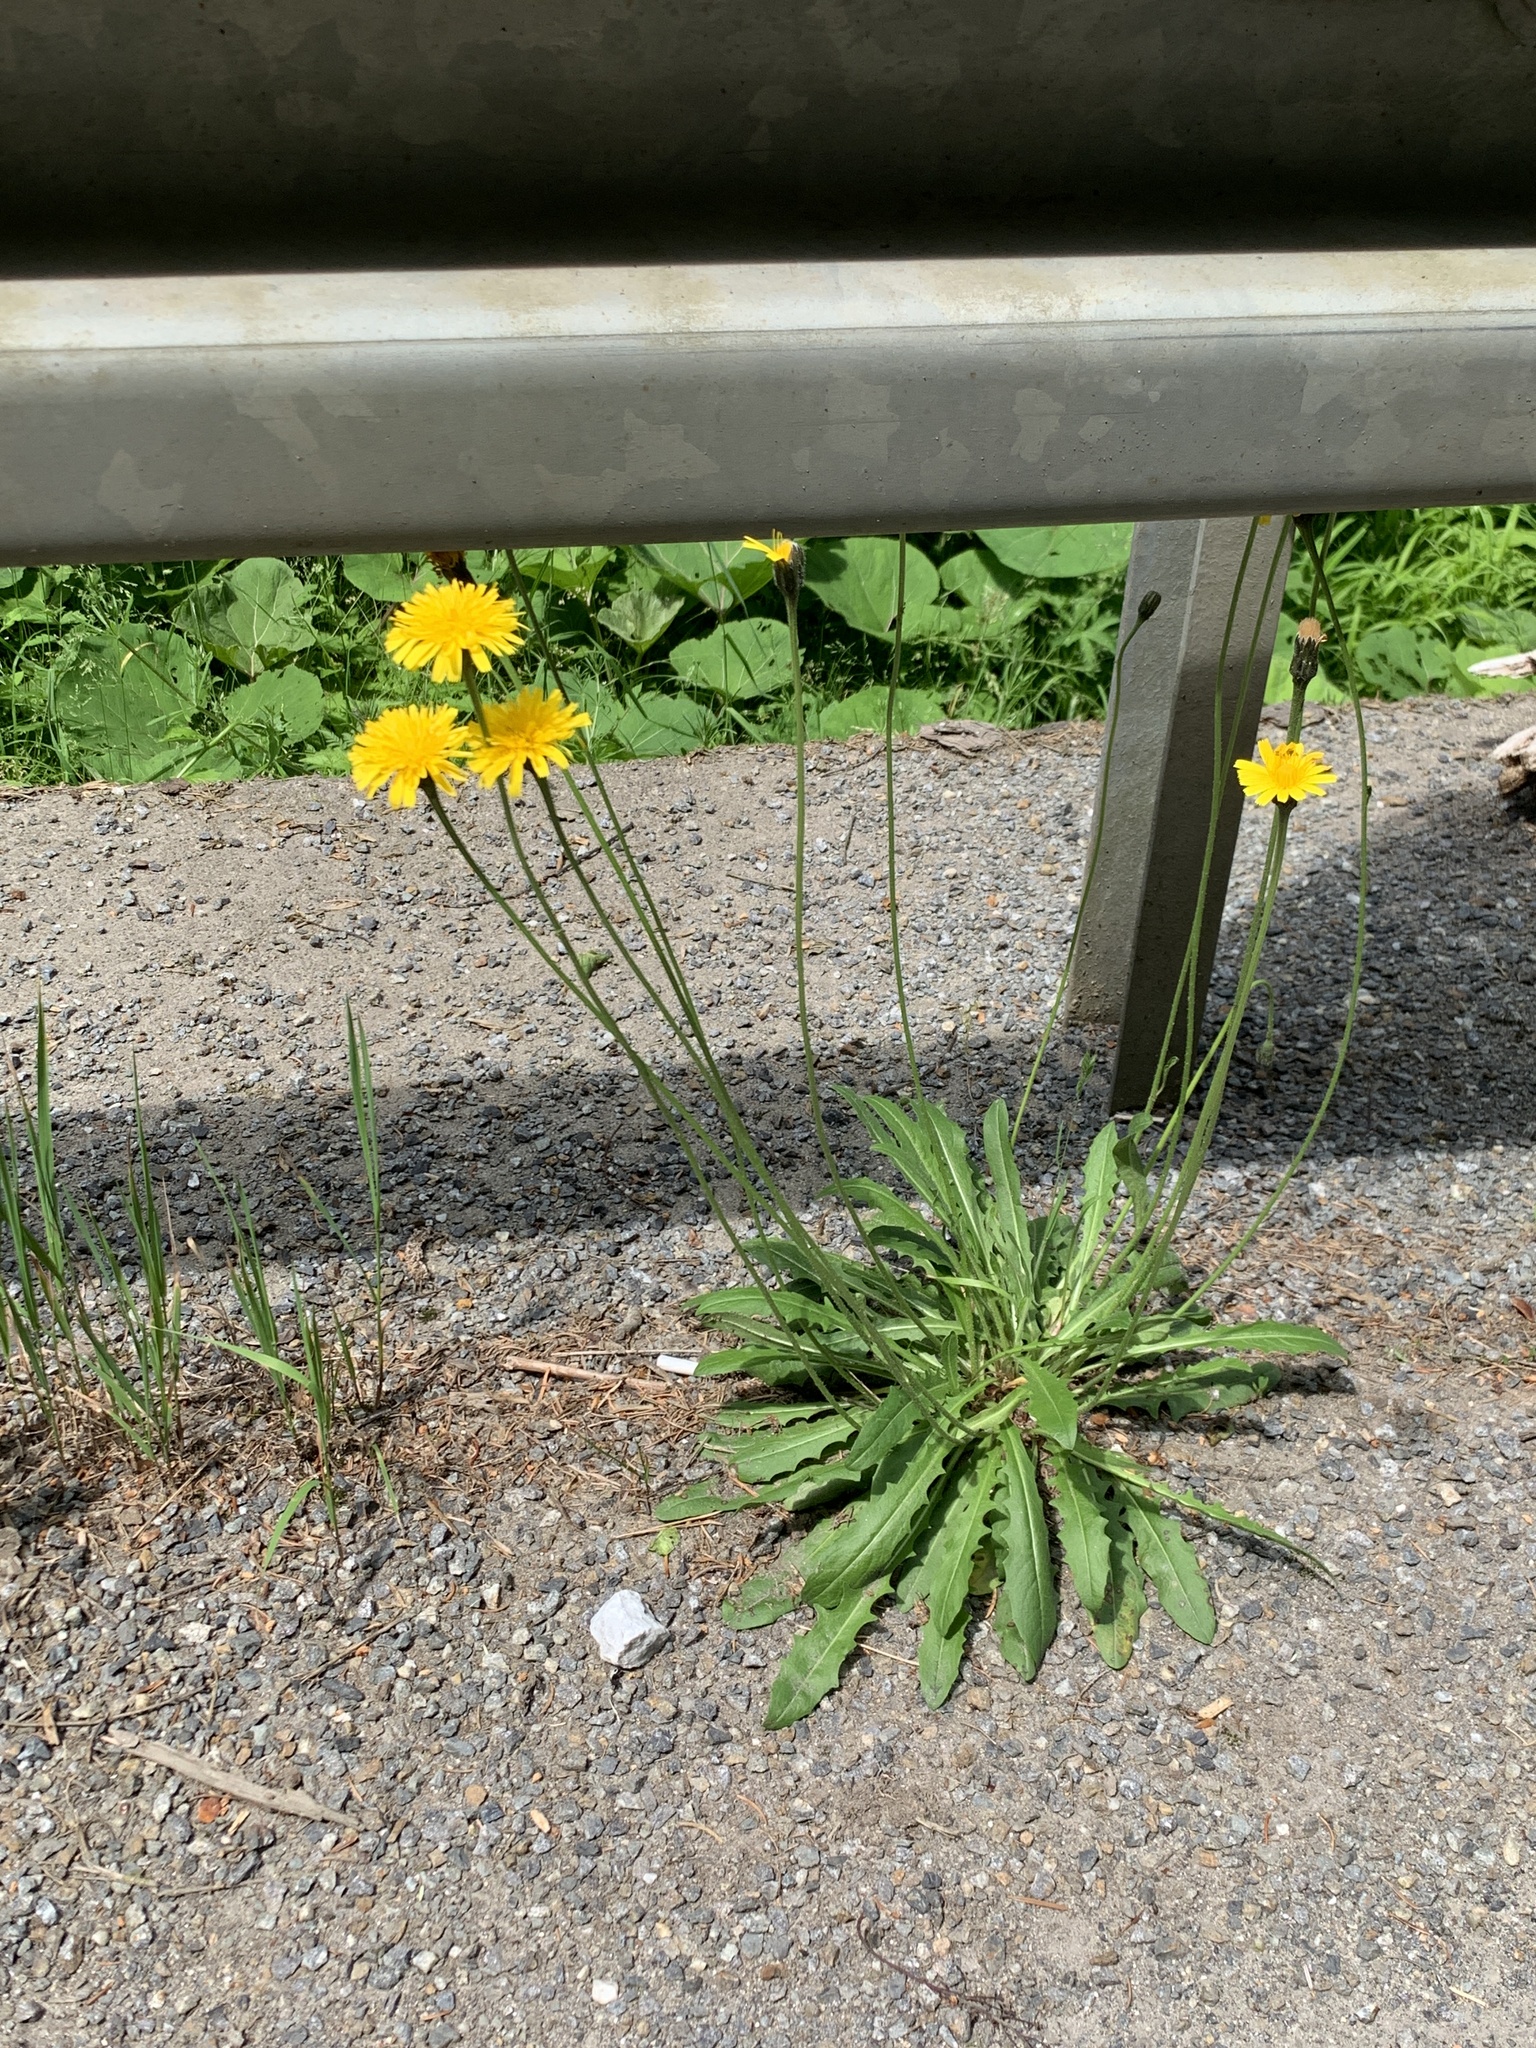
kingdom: Plantae
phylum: Tracheophyta
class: Magnoliopsida
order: Asterales
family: Asteraceae
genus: Leontodon
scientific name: Leontodon hispidus
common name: Rough hawkbit
